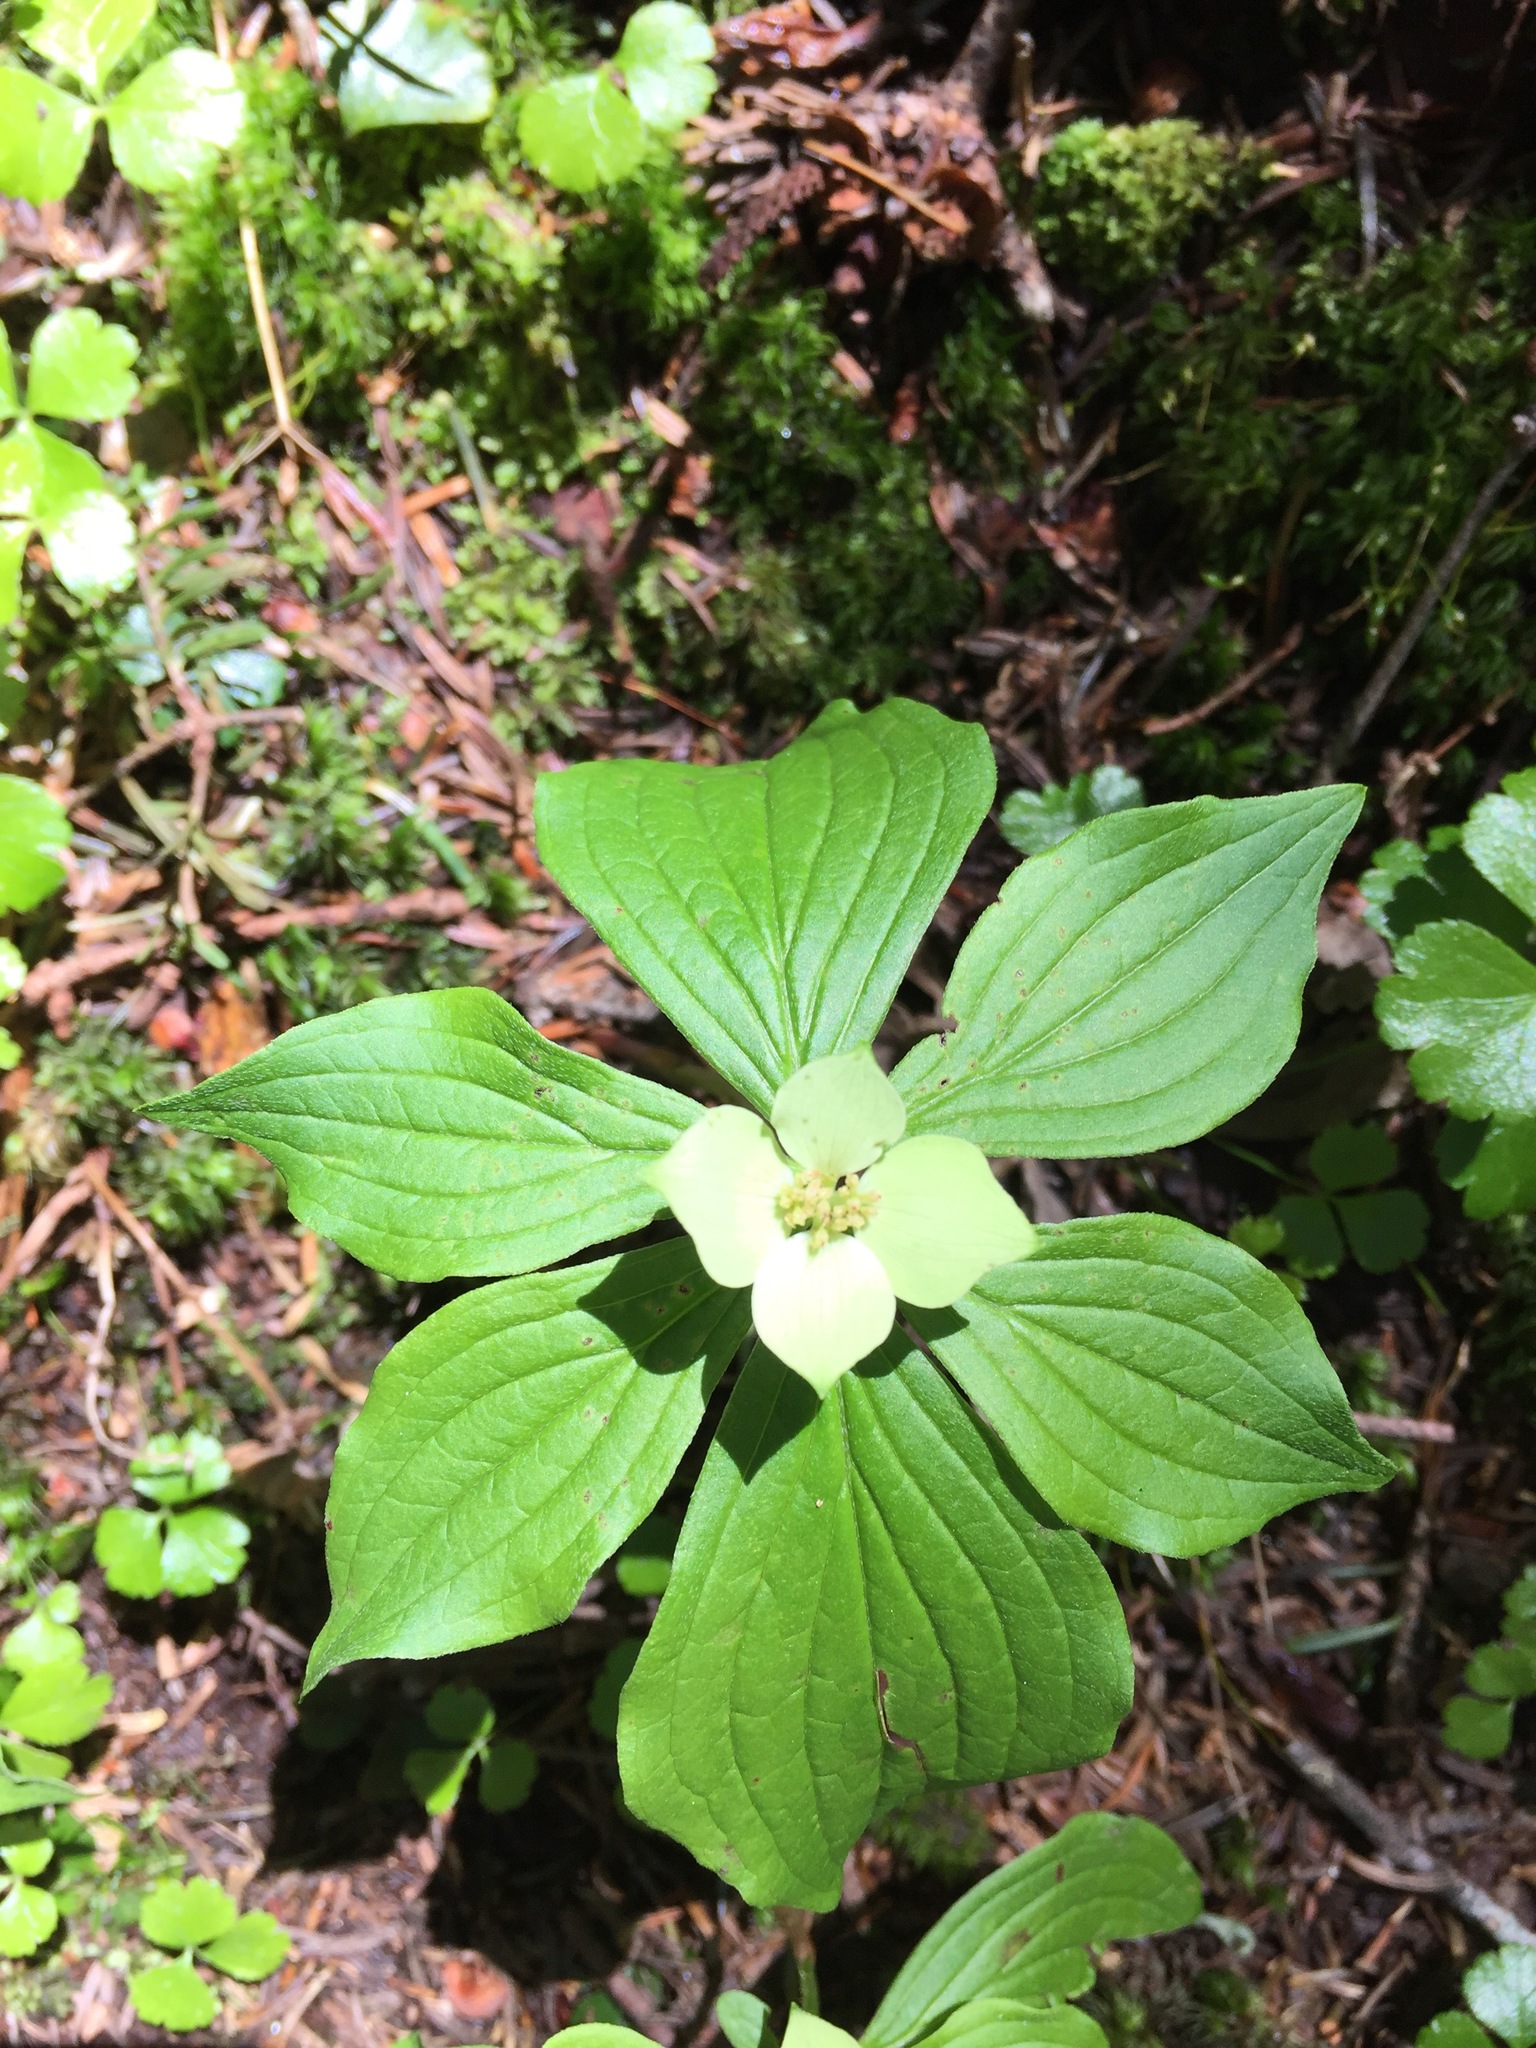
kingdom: Plantae
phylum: Tracheophyta
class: Magnoliopsida
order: Cornales
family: Cornaceae
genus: Cornus
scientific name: Cornus canadensis
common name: Creeping dogwood
